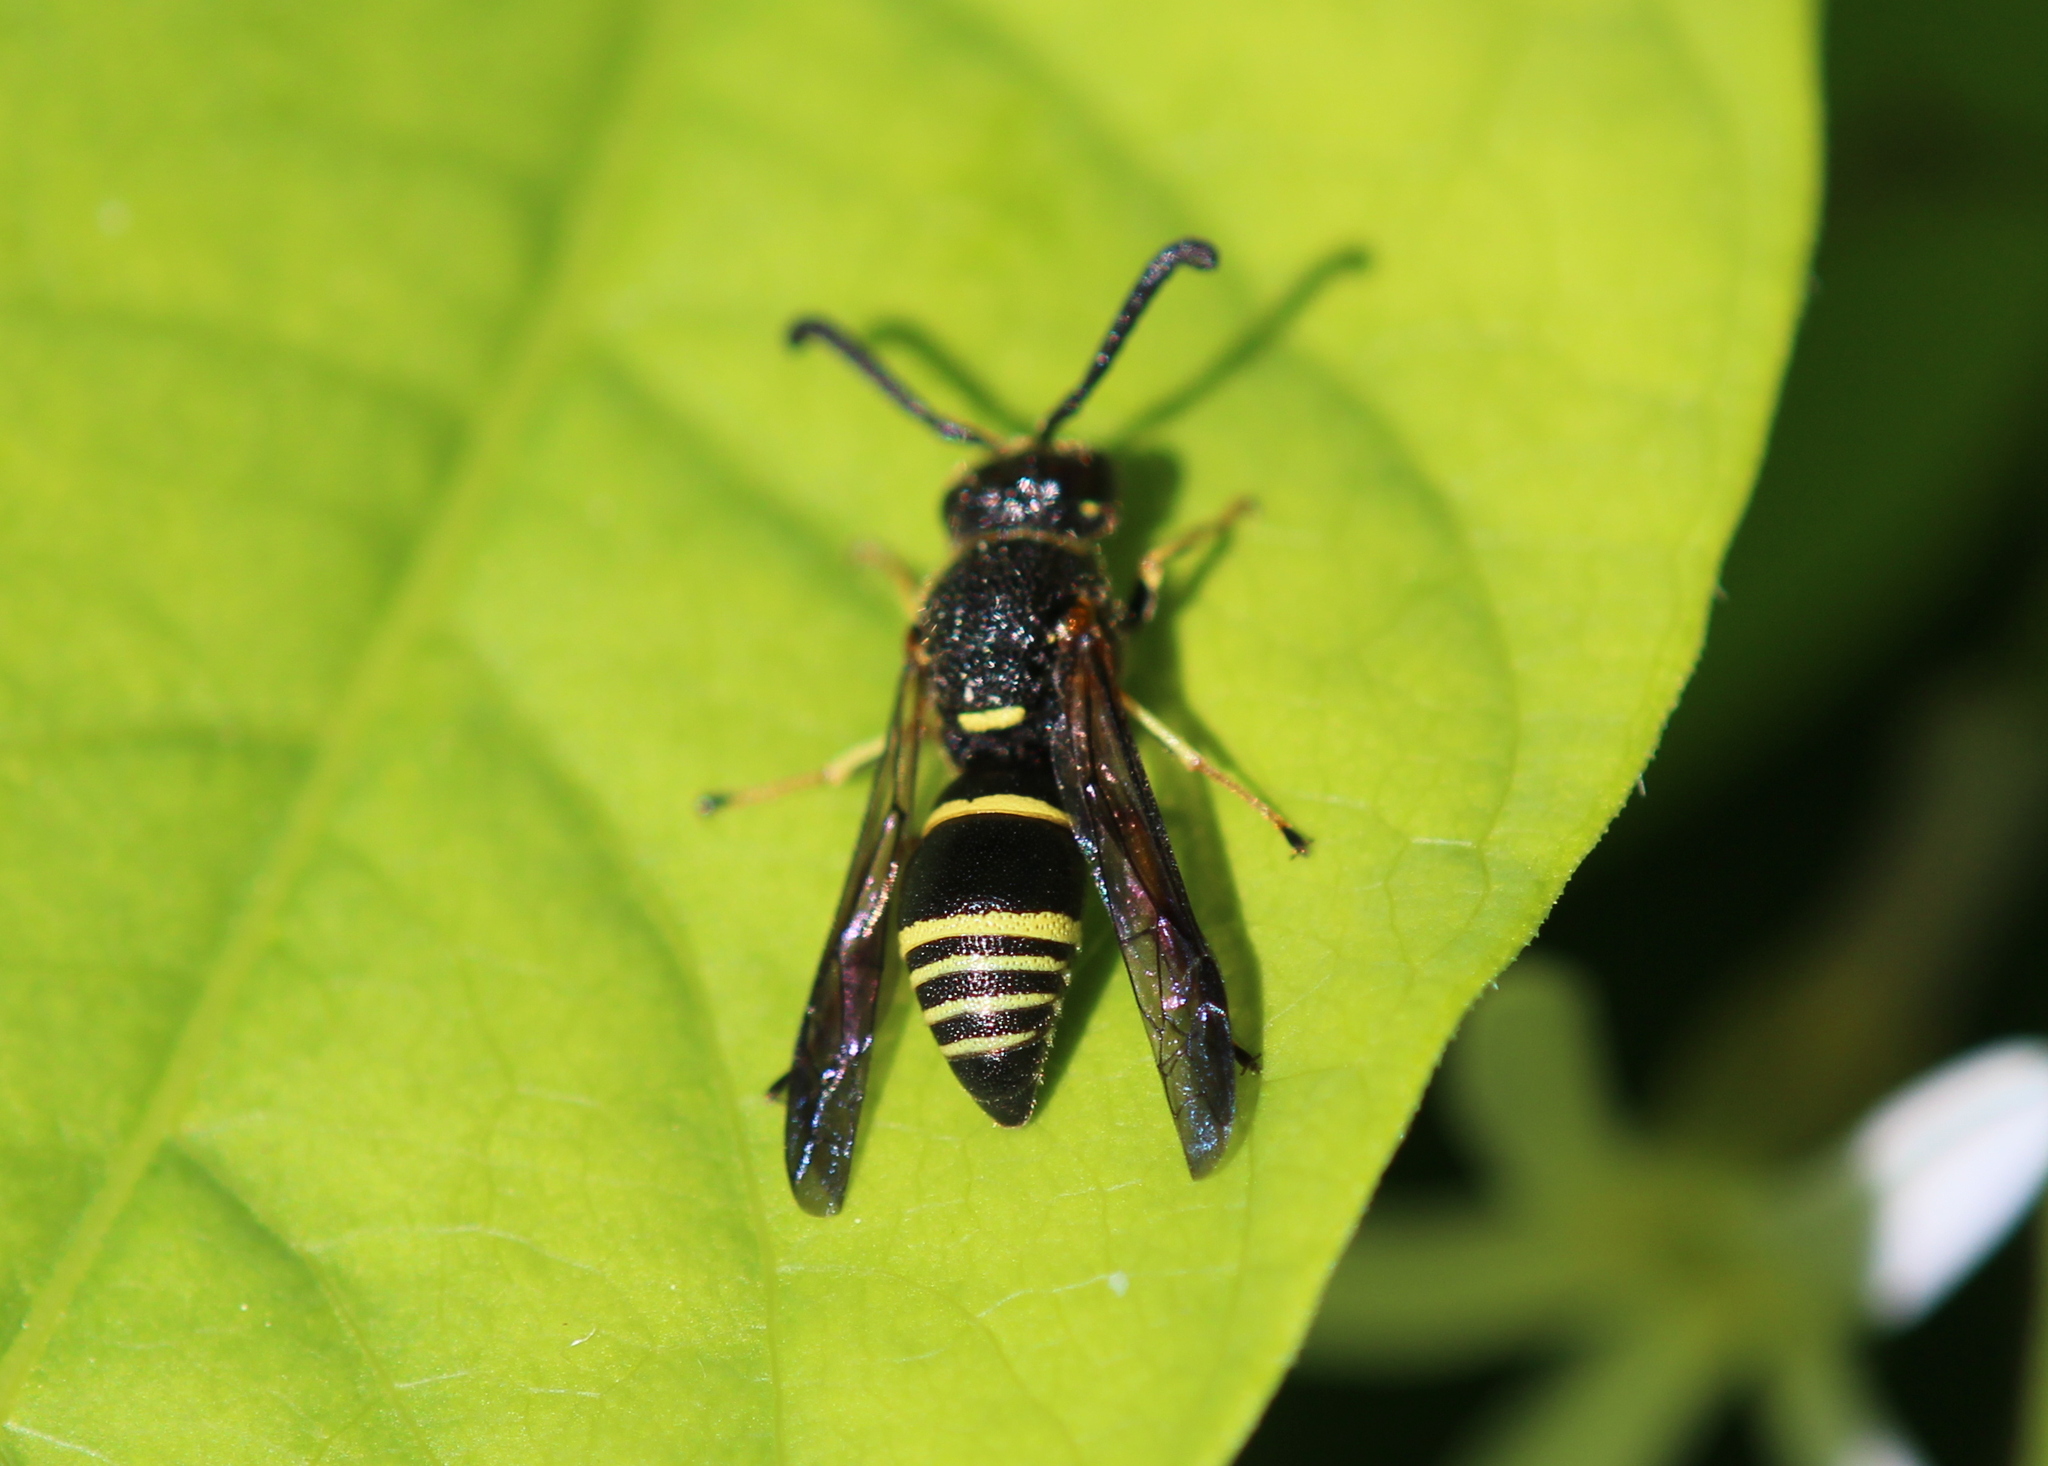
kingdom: Animalia
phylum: Arthropoda
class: Insecta
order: Hymenoptera
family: Eumenidae
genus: Euodynerus
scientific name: Euodynerus foraminatus
